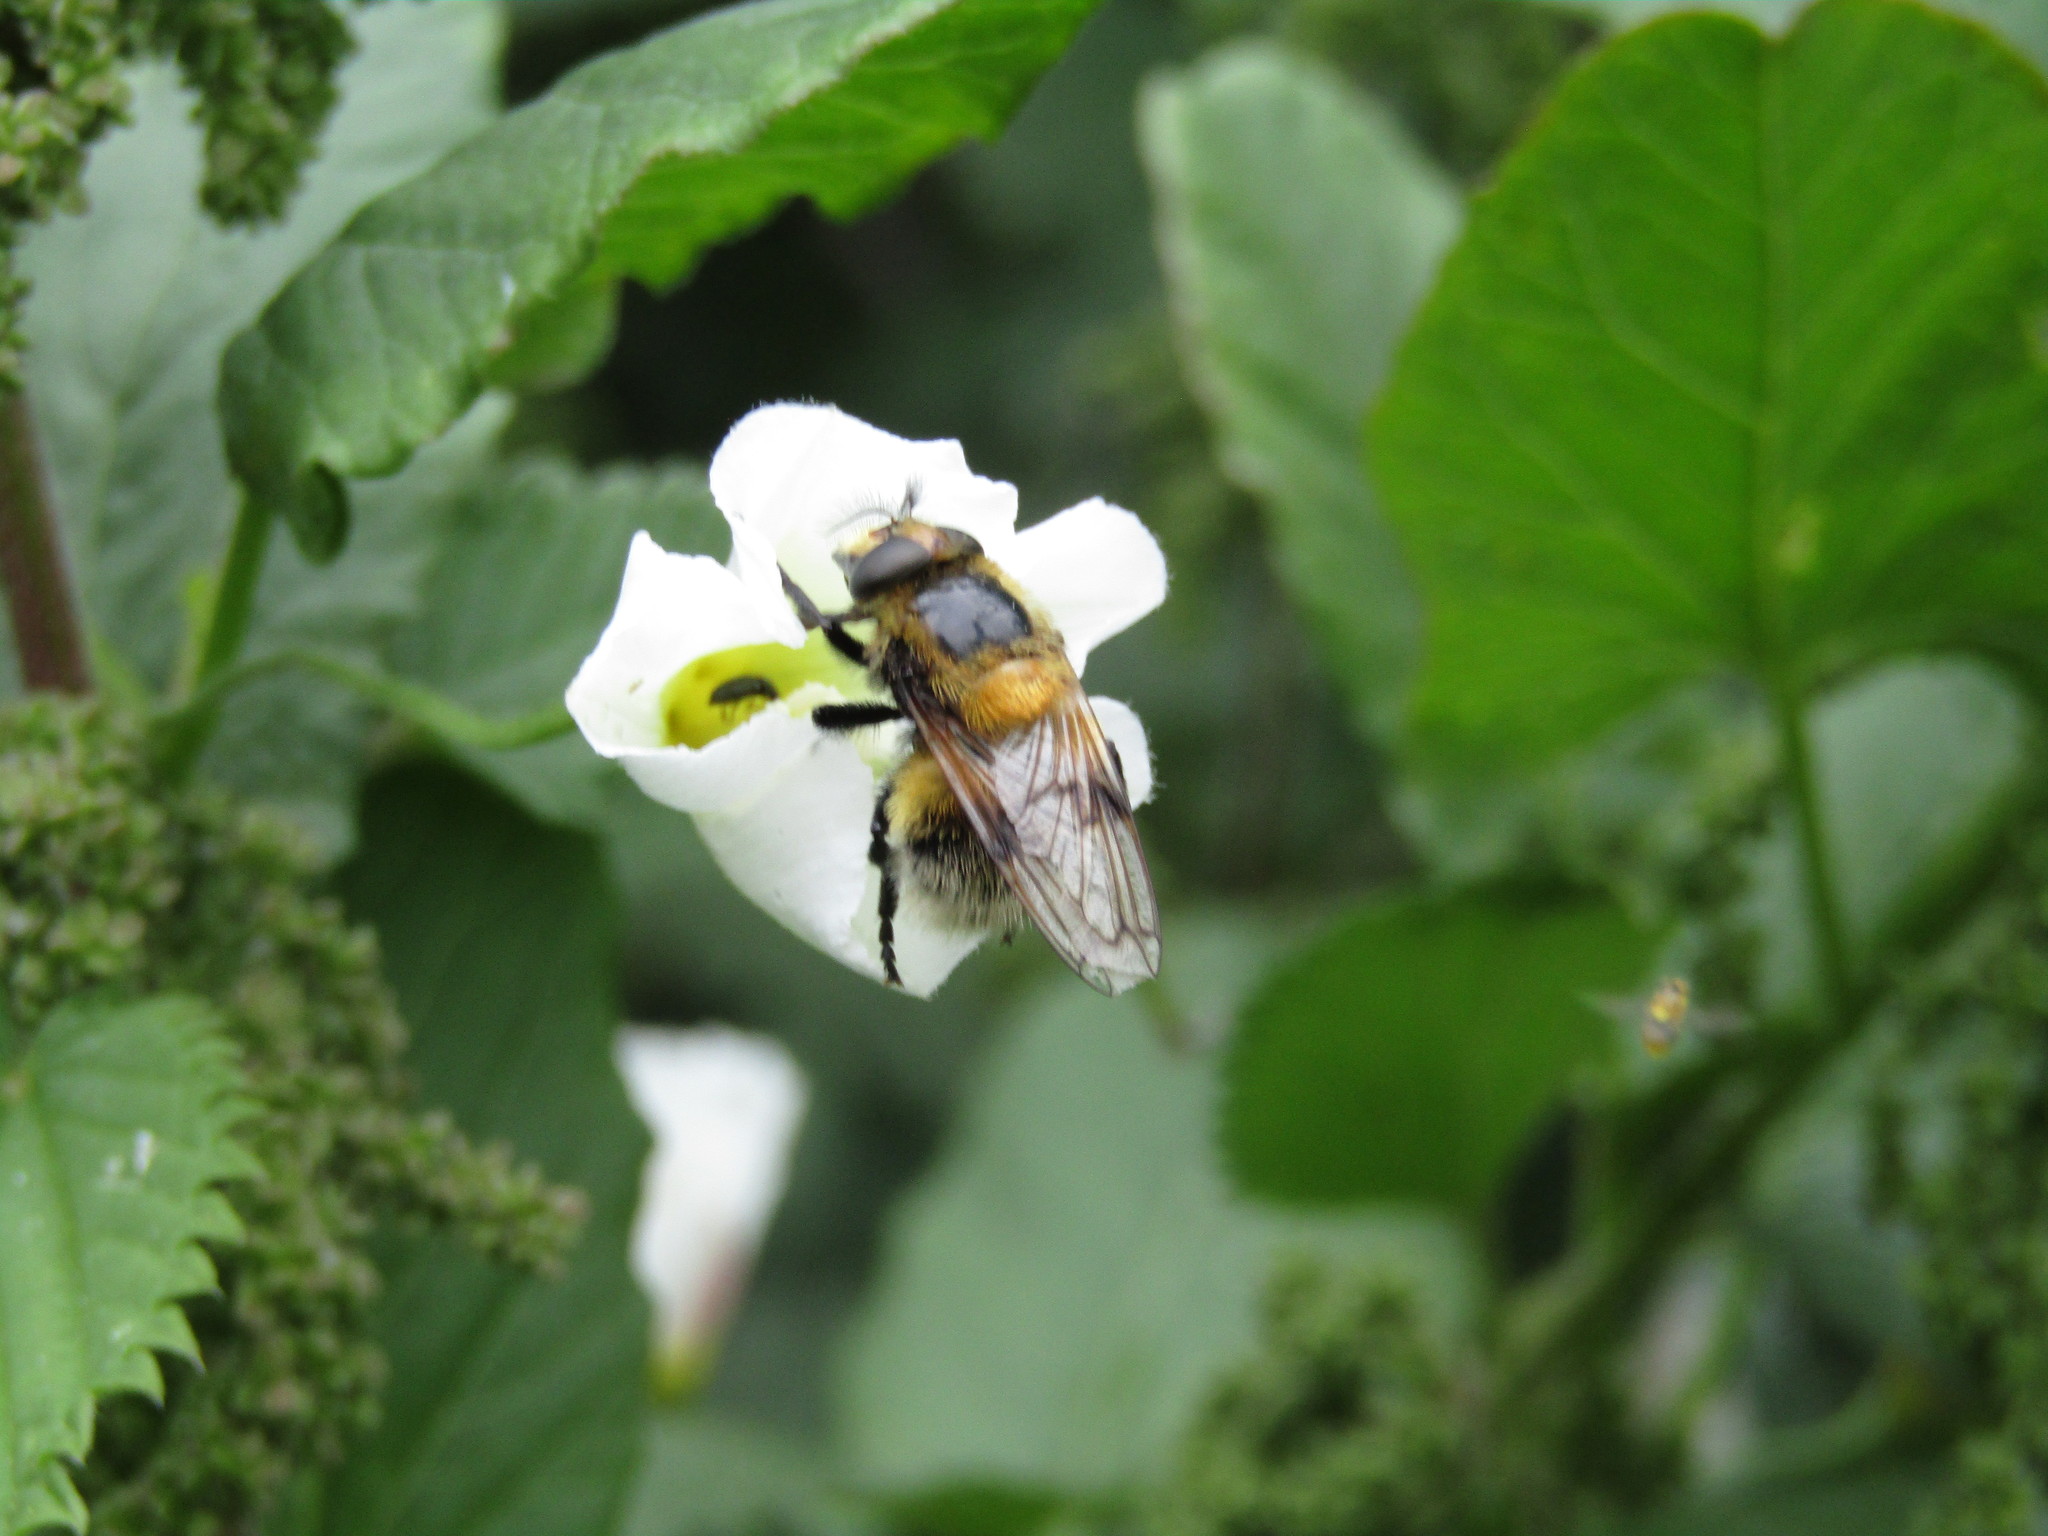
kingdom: Animalia
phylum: Arthropoda
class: Insecta
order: Diptera
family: Syrphidae
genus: Volucella
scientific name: Volucella bombylans
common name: Bumble bee hover fly
